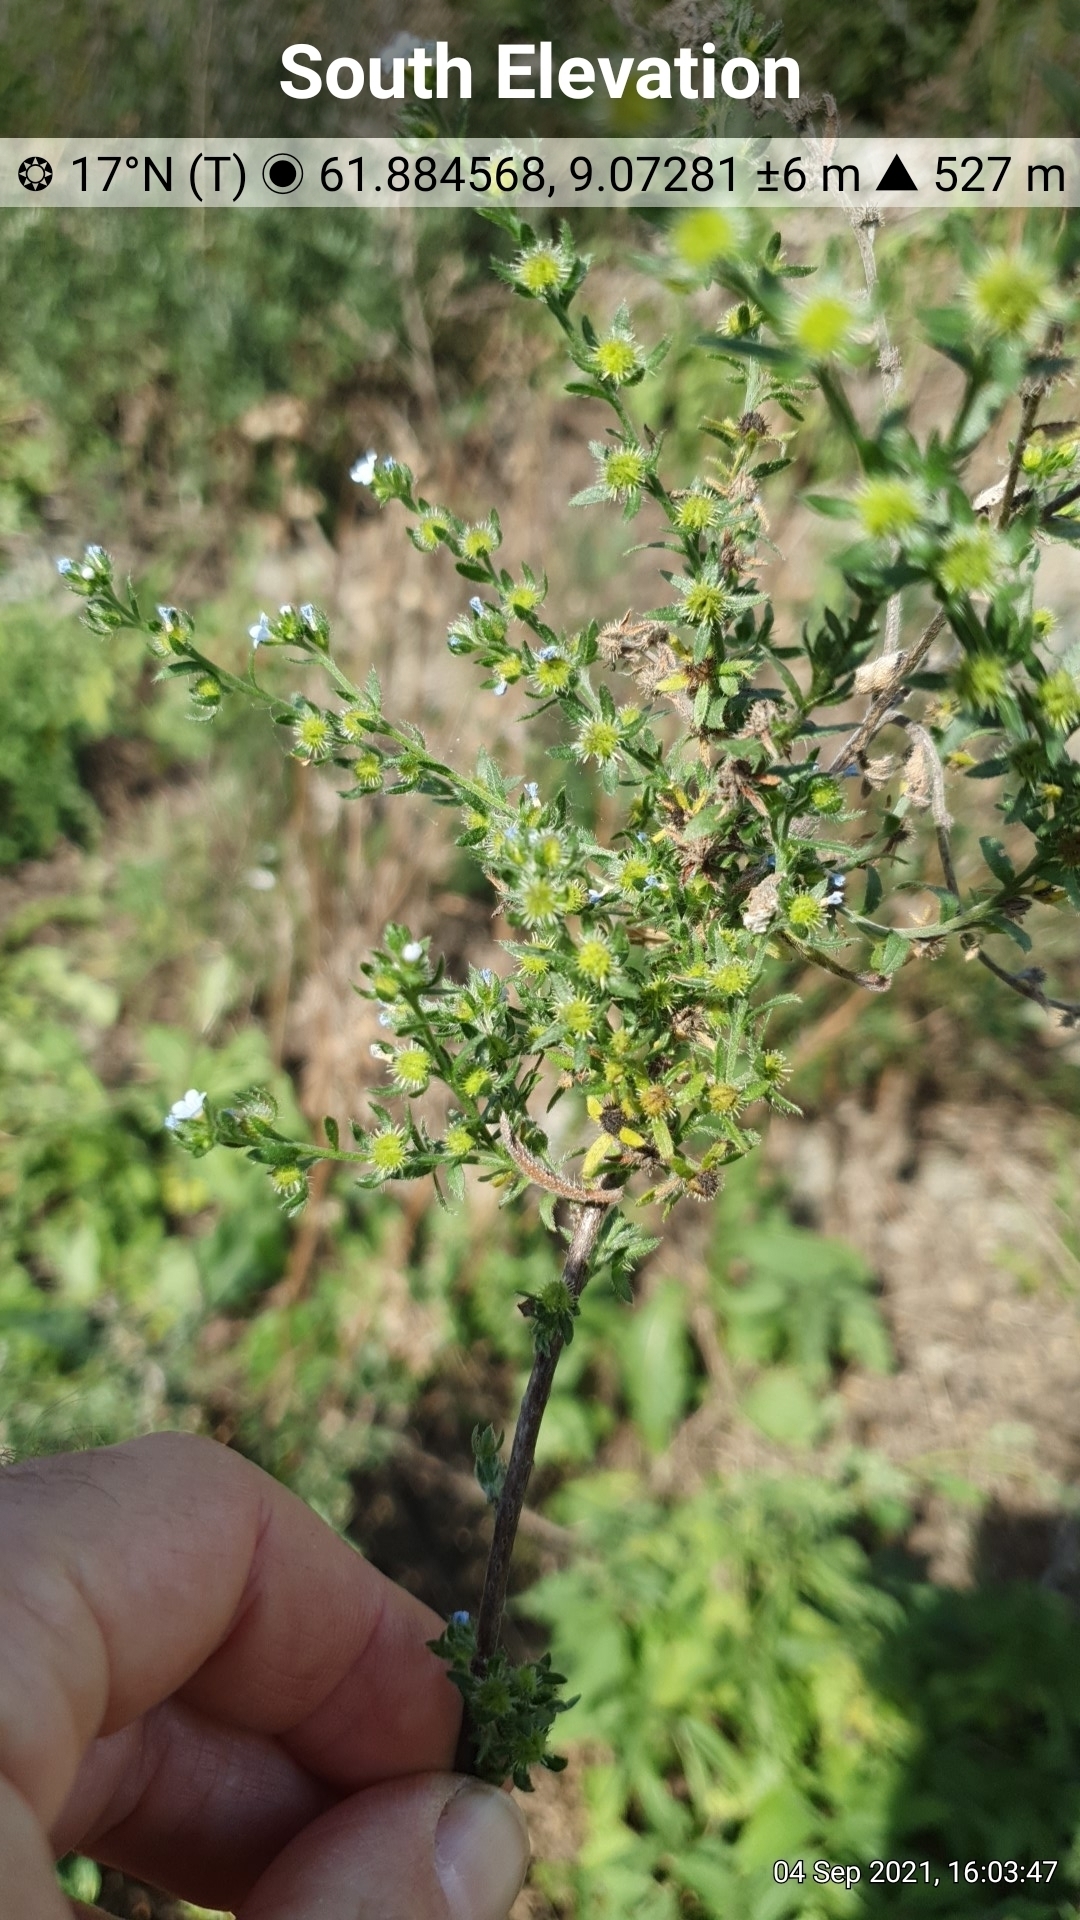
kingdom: Plantae
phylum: Tracheophyta
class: Magnoliopsida
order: Boraginales
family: Boraginaceae
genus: Lappula
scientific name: Lappula squarrosa
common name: European stickseed
